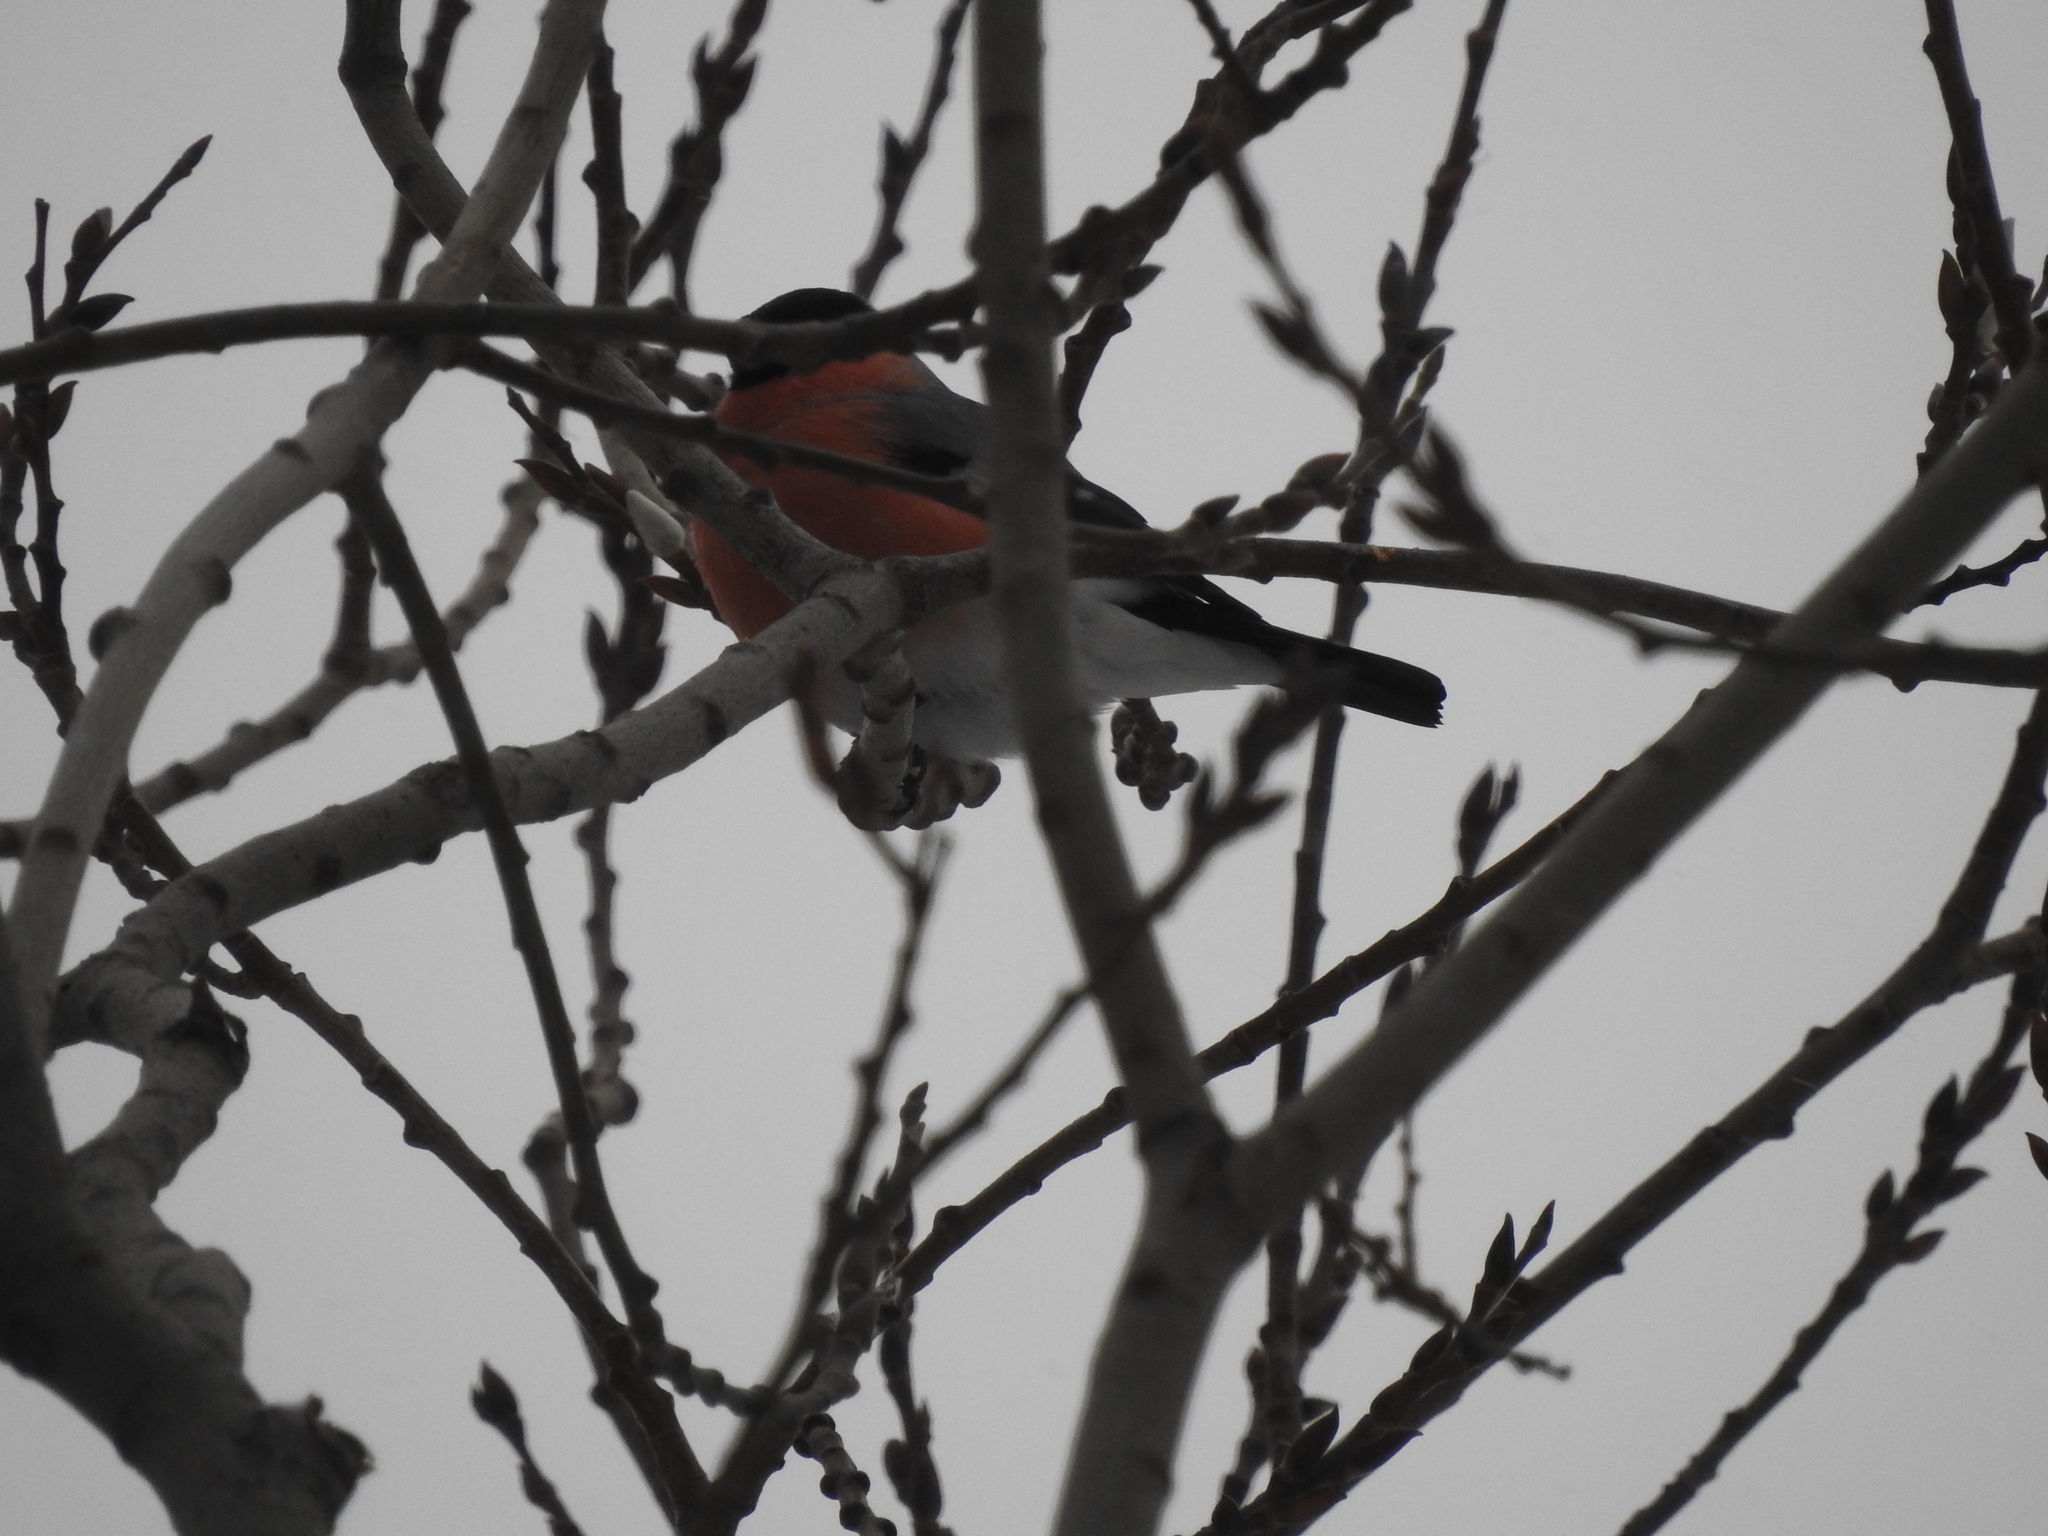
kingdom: Animalia
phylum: Chordata
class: Aves
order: Passeriformes
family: Fringillidae
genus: Pyrrhula
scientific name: Pyrrhula pyrrhula
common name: Eurasian bullfinch
